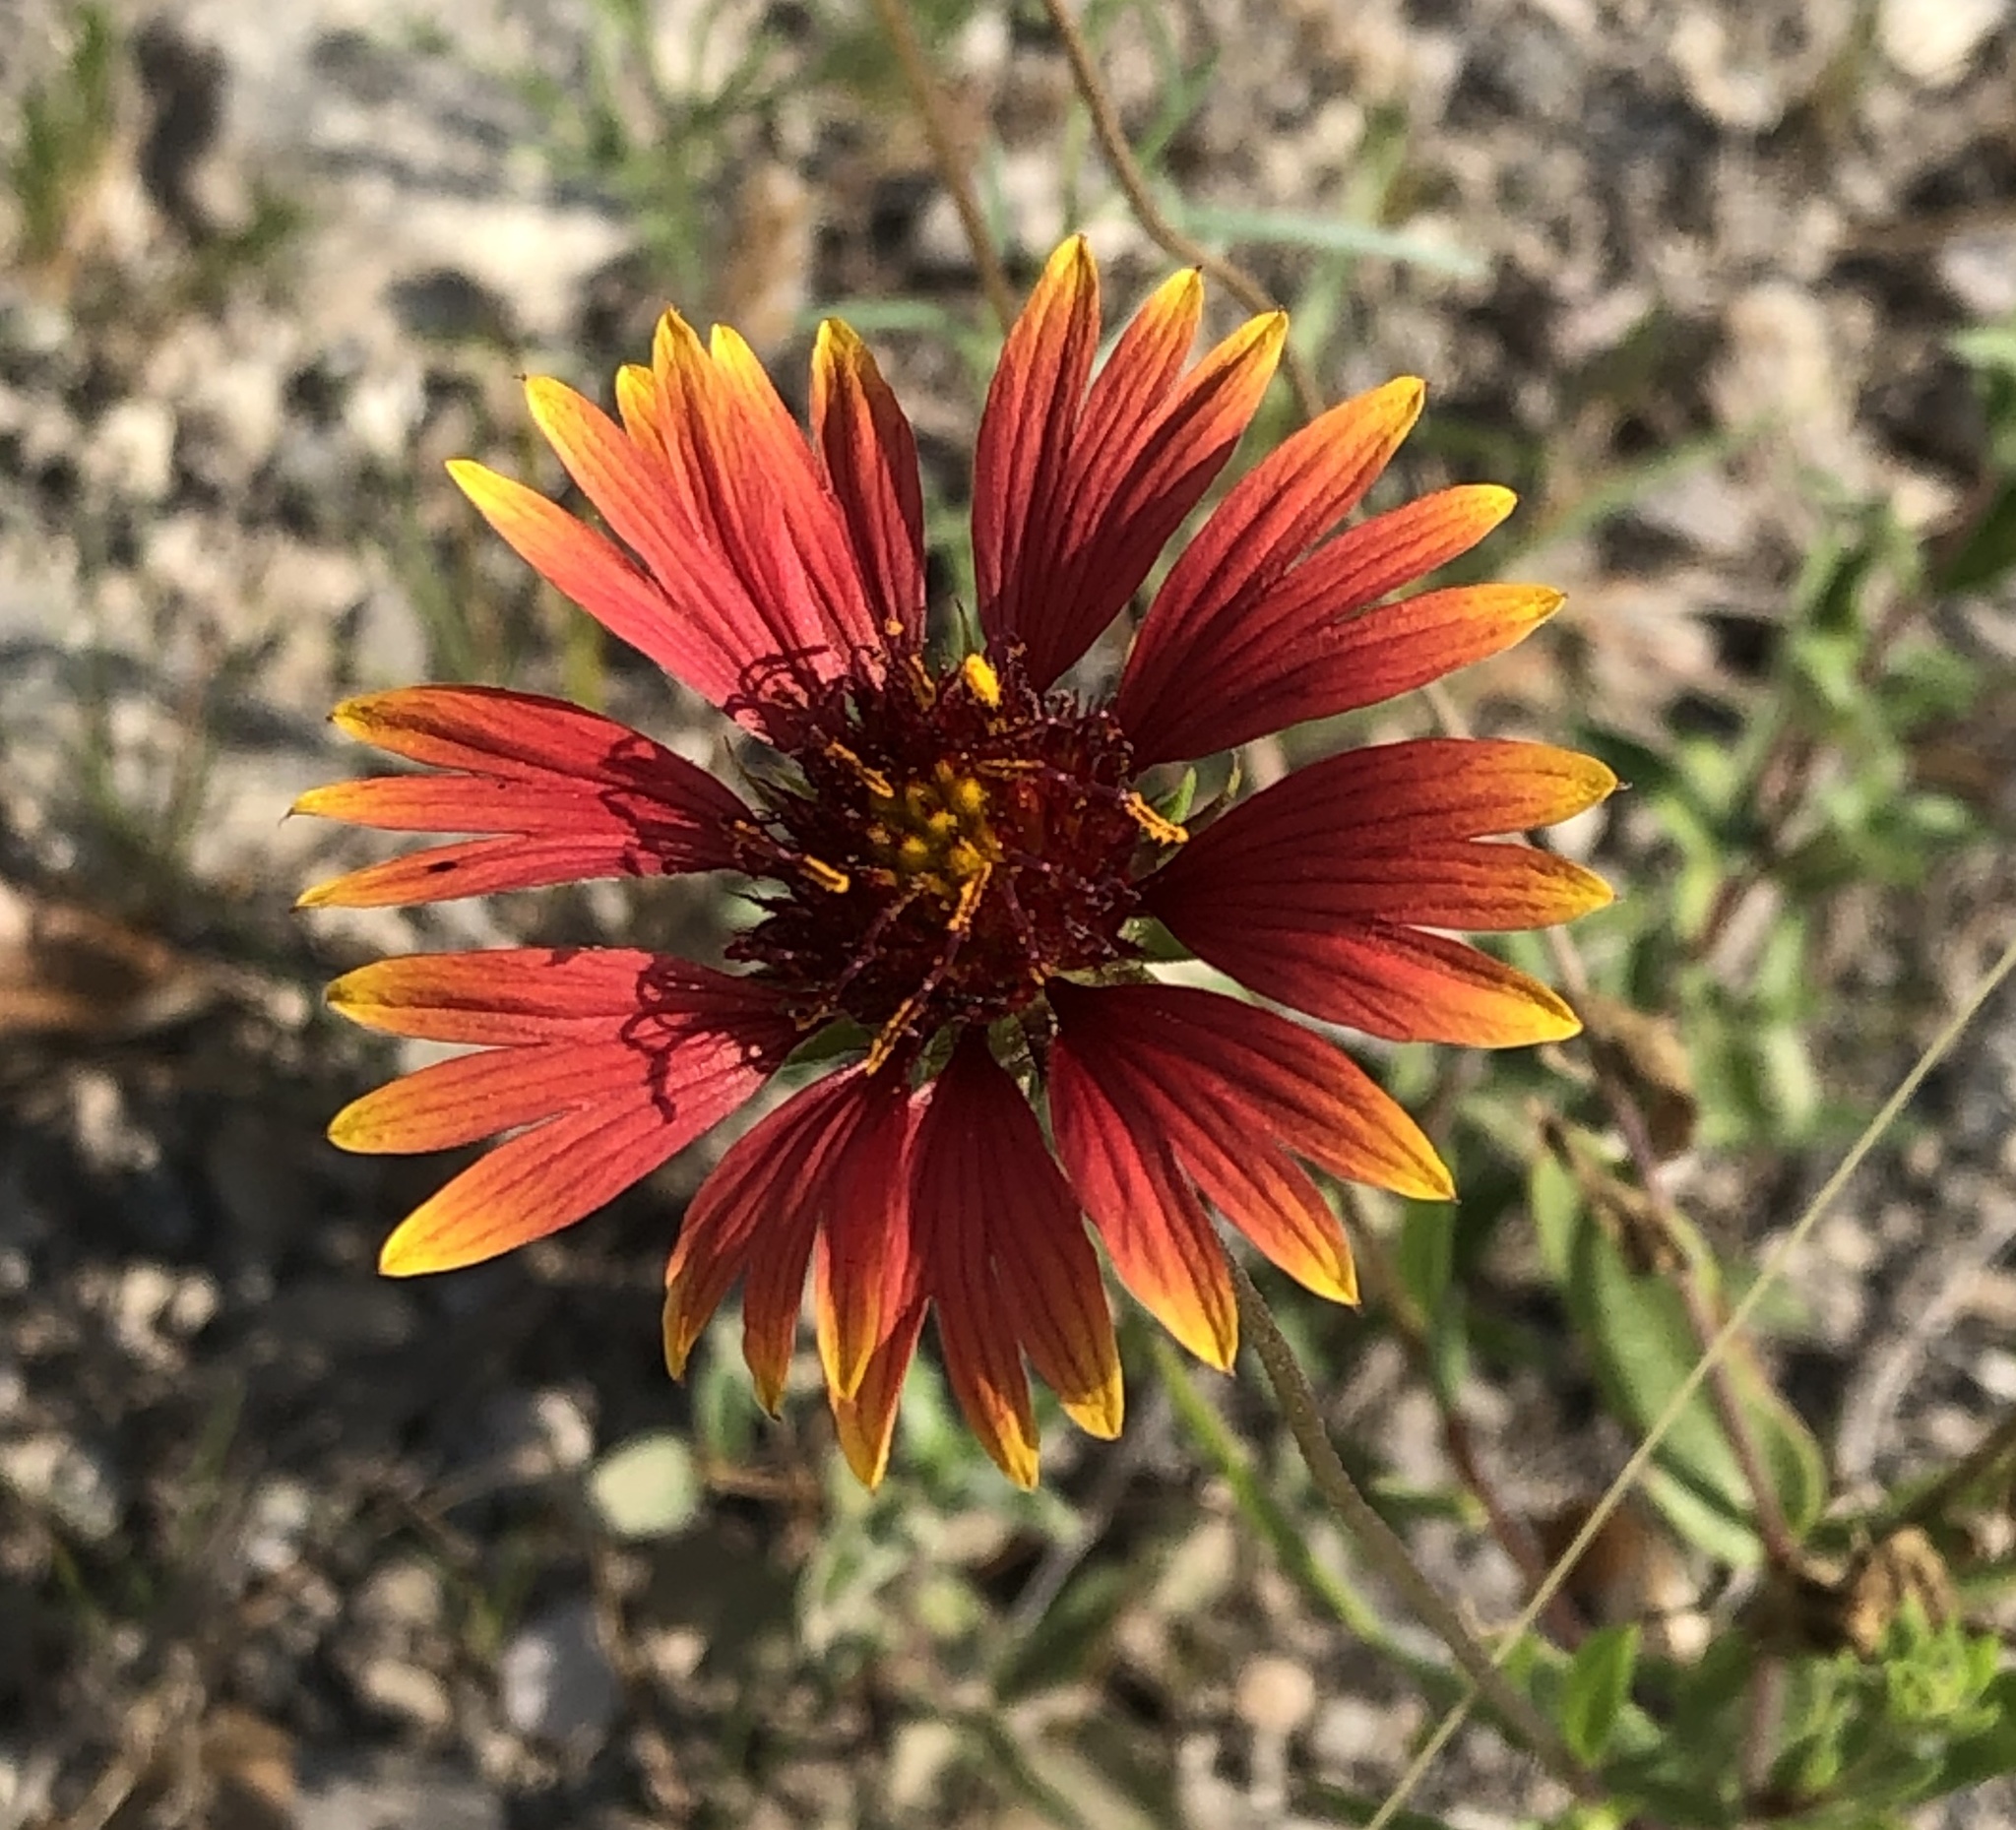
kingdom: Plantae
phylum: Tracheophyta
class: Magnoliopsida
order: Asterales
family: Asteraceae
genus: Gaillardia
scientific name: Gaillardia pulchella
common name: Firewheel
